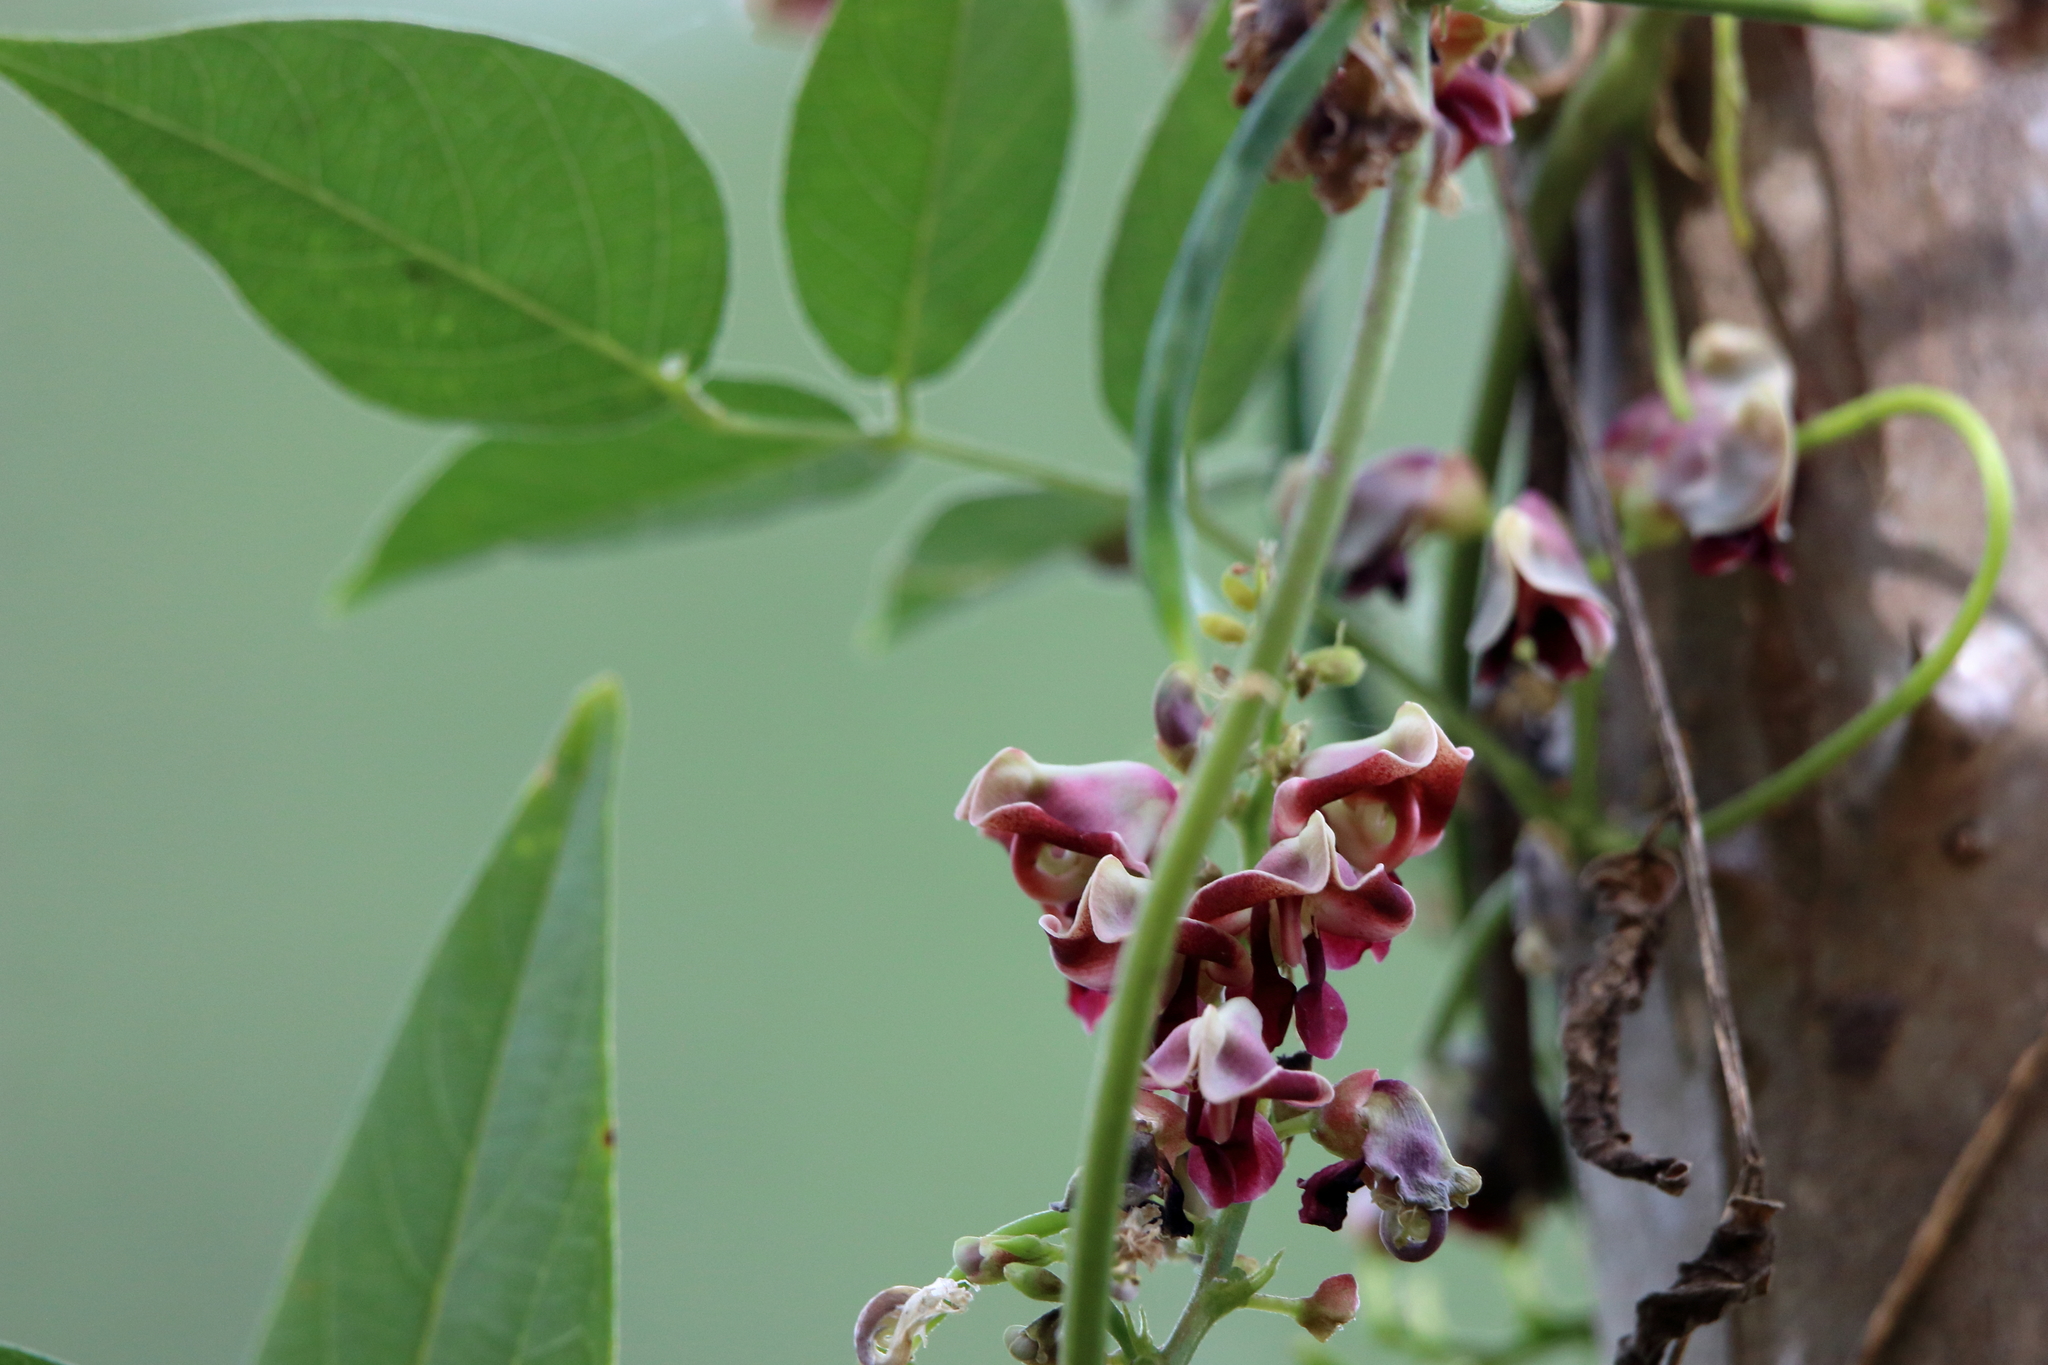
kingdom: Plantae
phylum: Tracheophyta
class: Magnoliopsida
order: Fabales
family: Fabaceae
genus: Apios
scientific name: Apios americana
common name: American potato-bean
